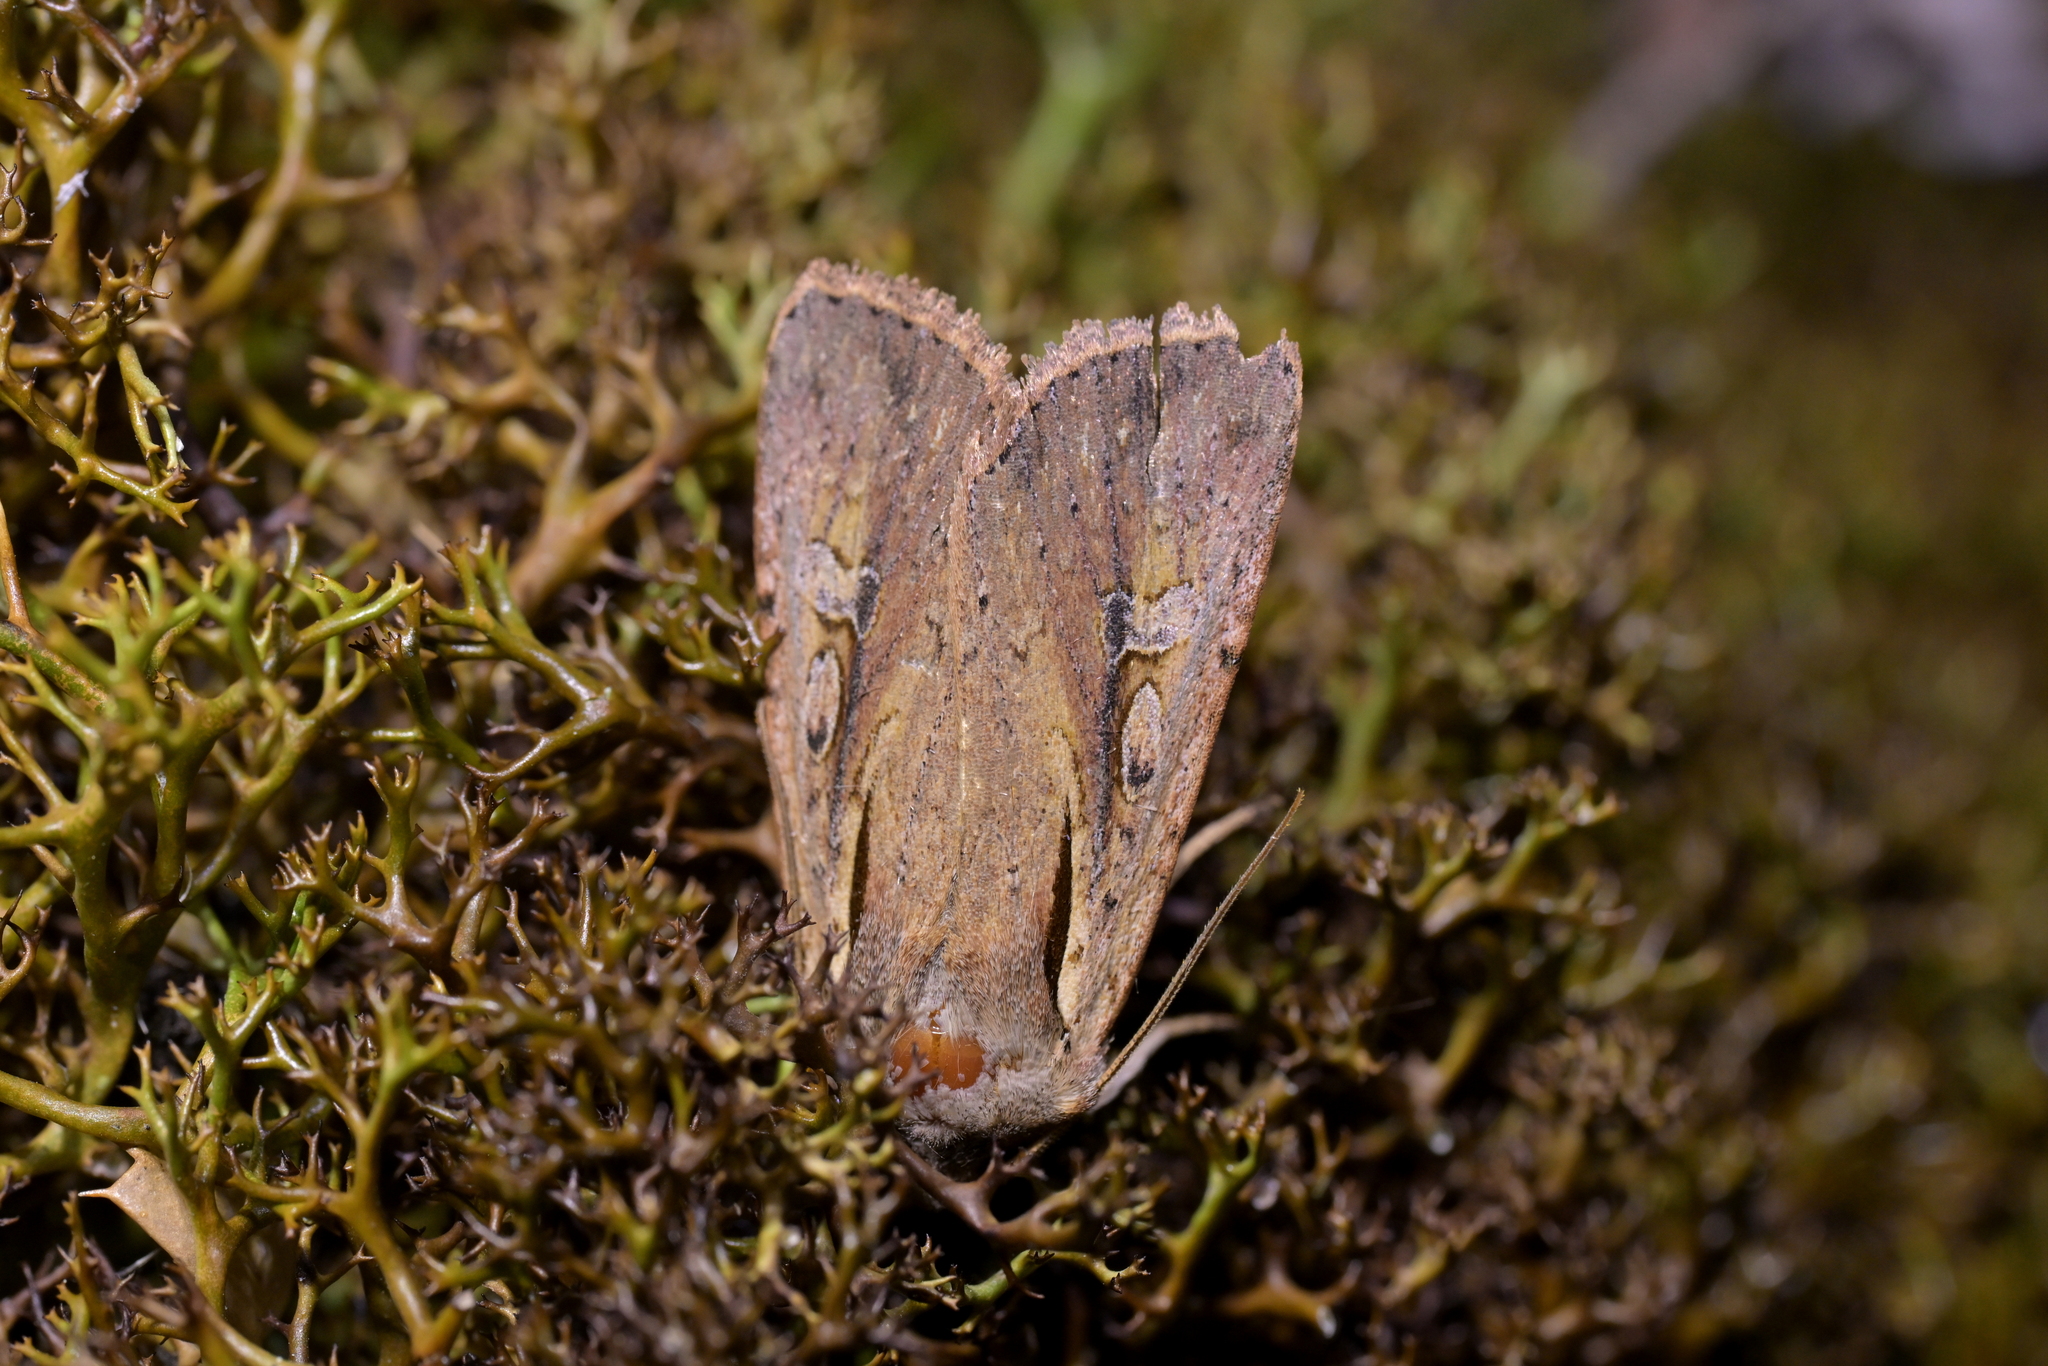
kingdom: Animalia
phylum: Arthropoda
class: Insecta
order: Lepidoptera
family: Noctuidae
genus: Ichneutica
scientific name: Ichneutica atristriga
